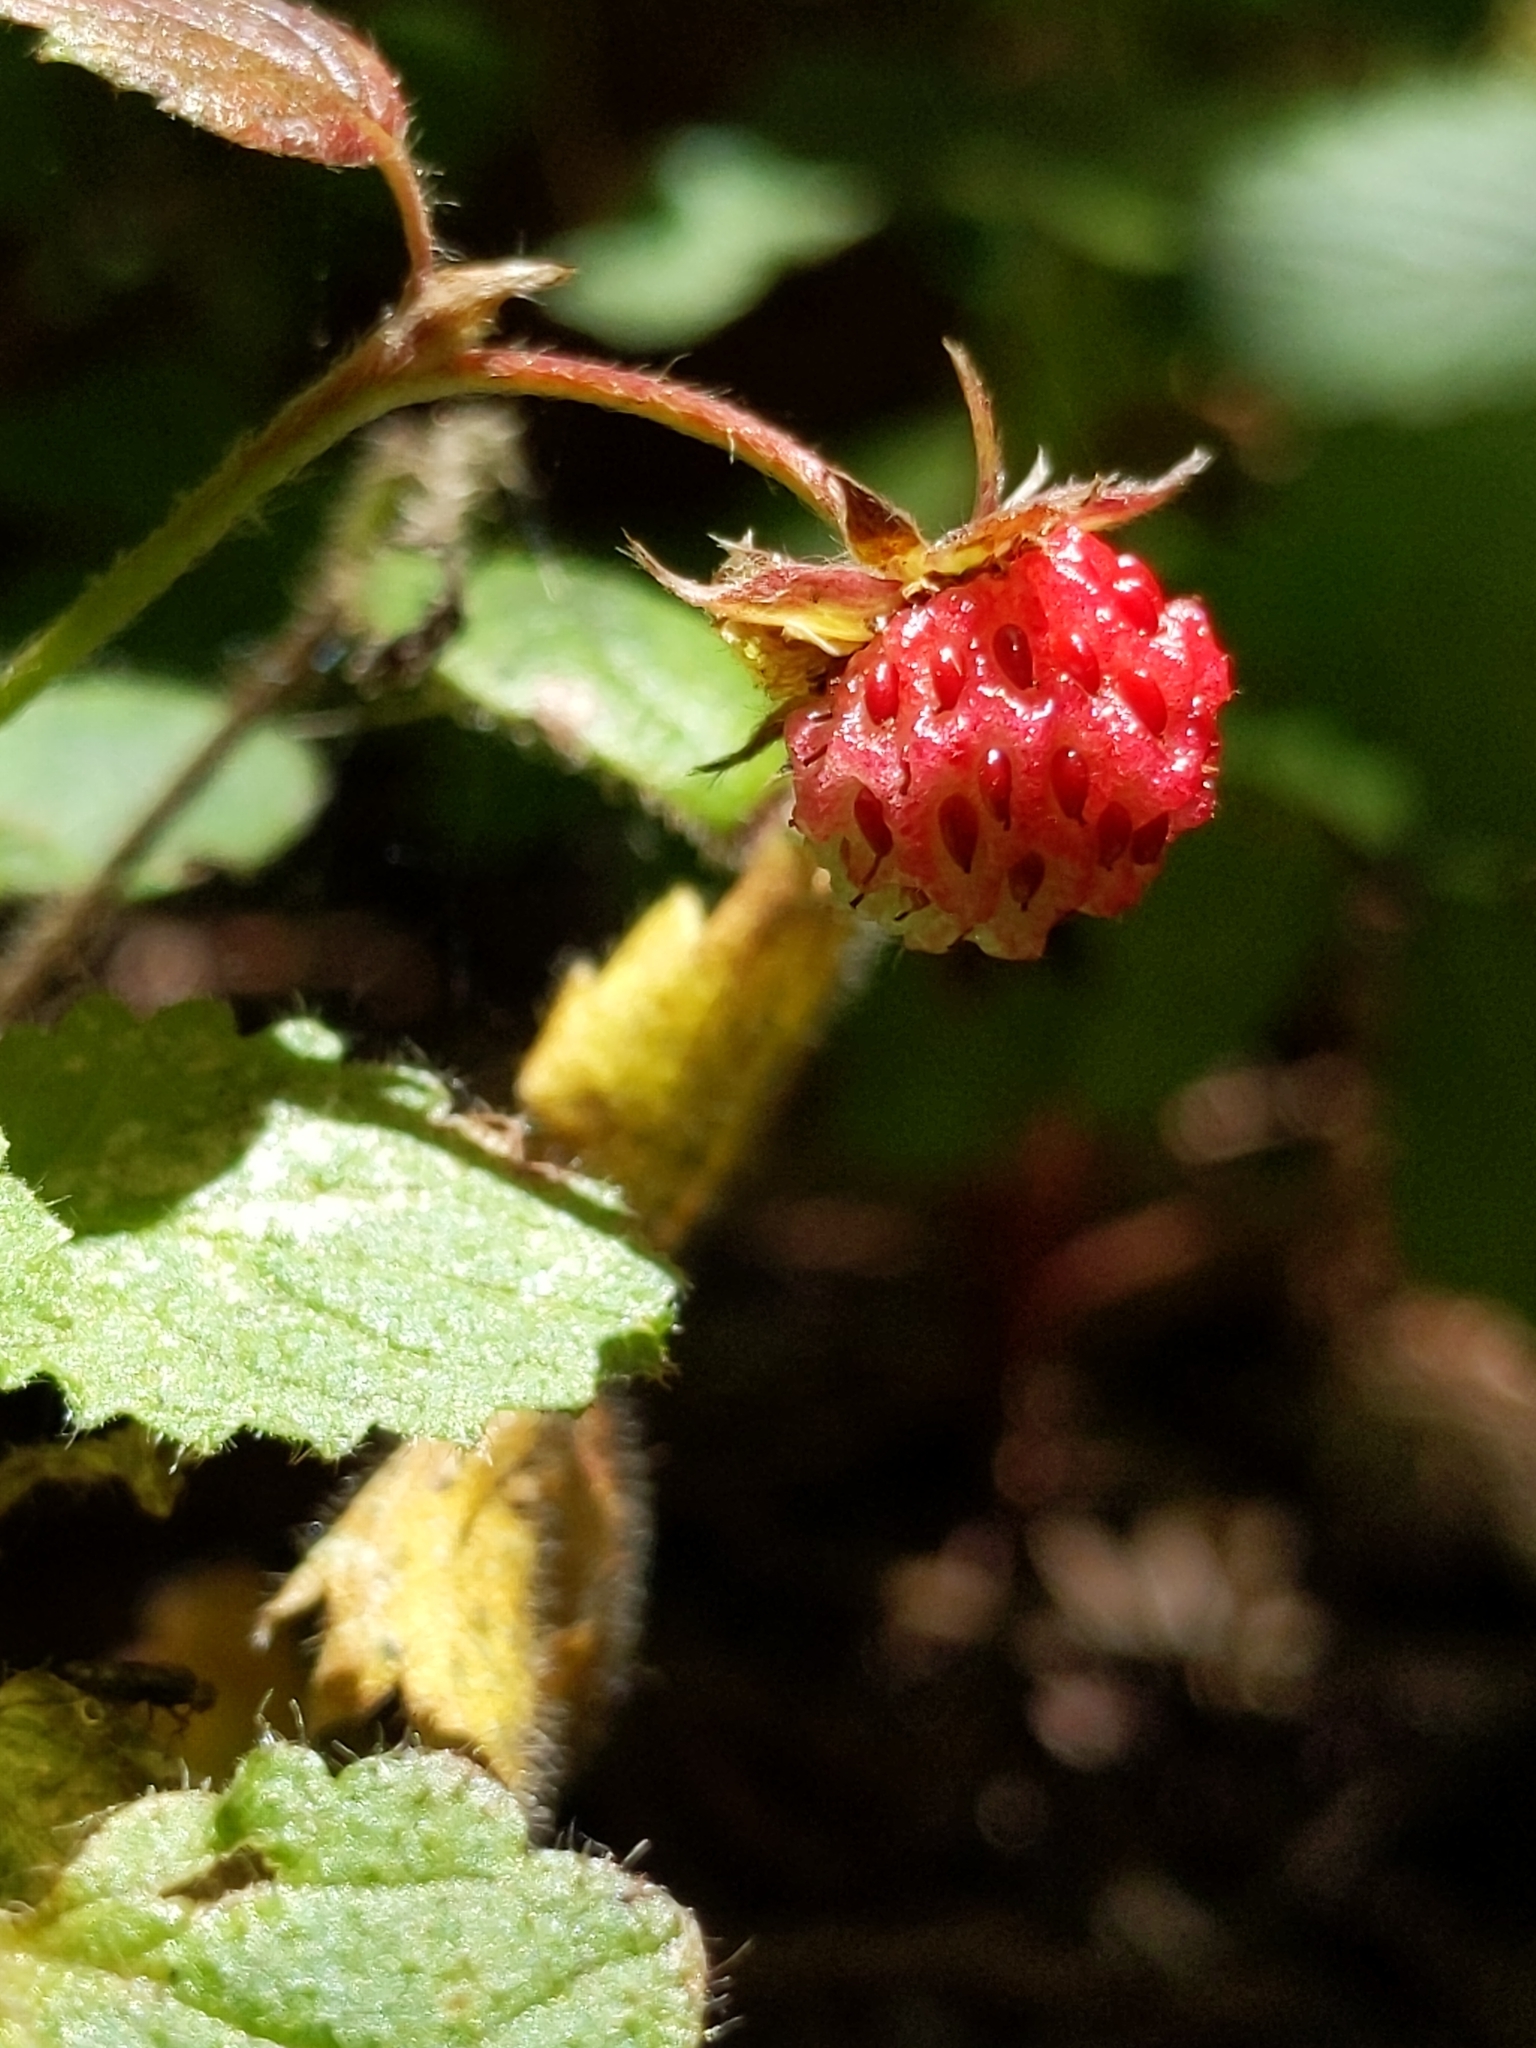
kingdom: Plantae
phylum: Tracheophyta
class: Magnoliopsida
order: Rosales
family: Rosaceae
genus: Fragaria
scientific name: Fragaria vesca
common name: Wild strawberry
